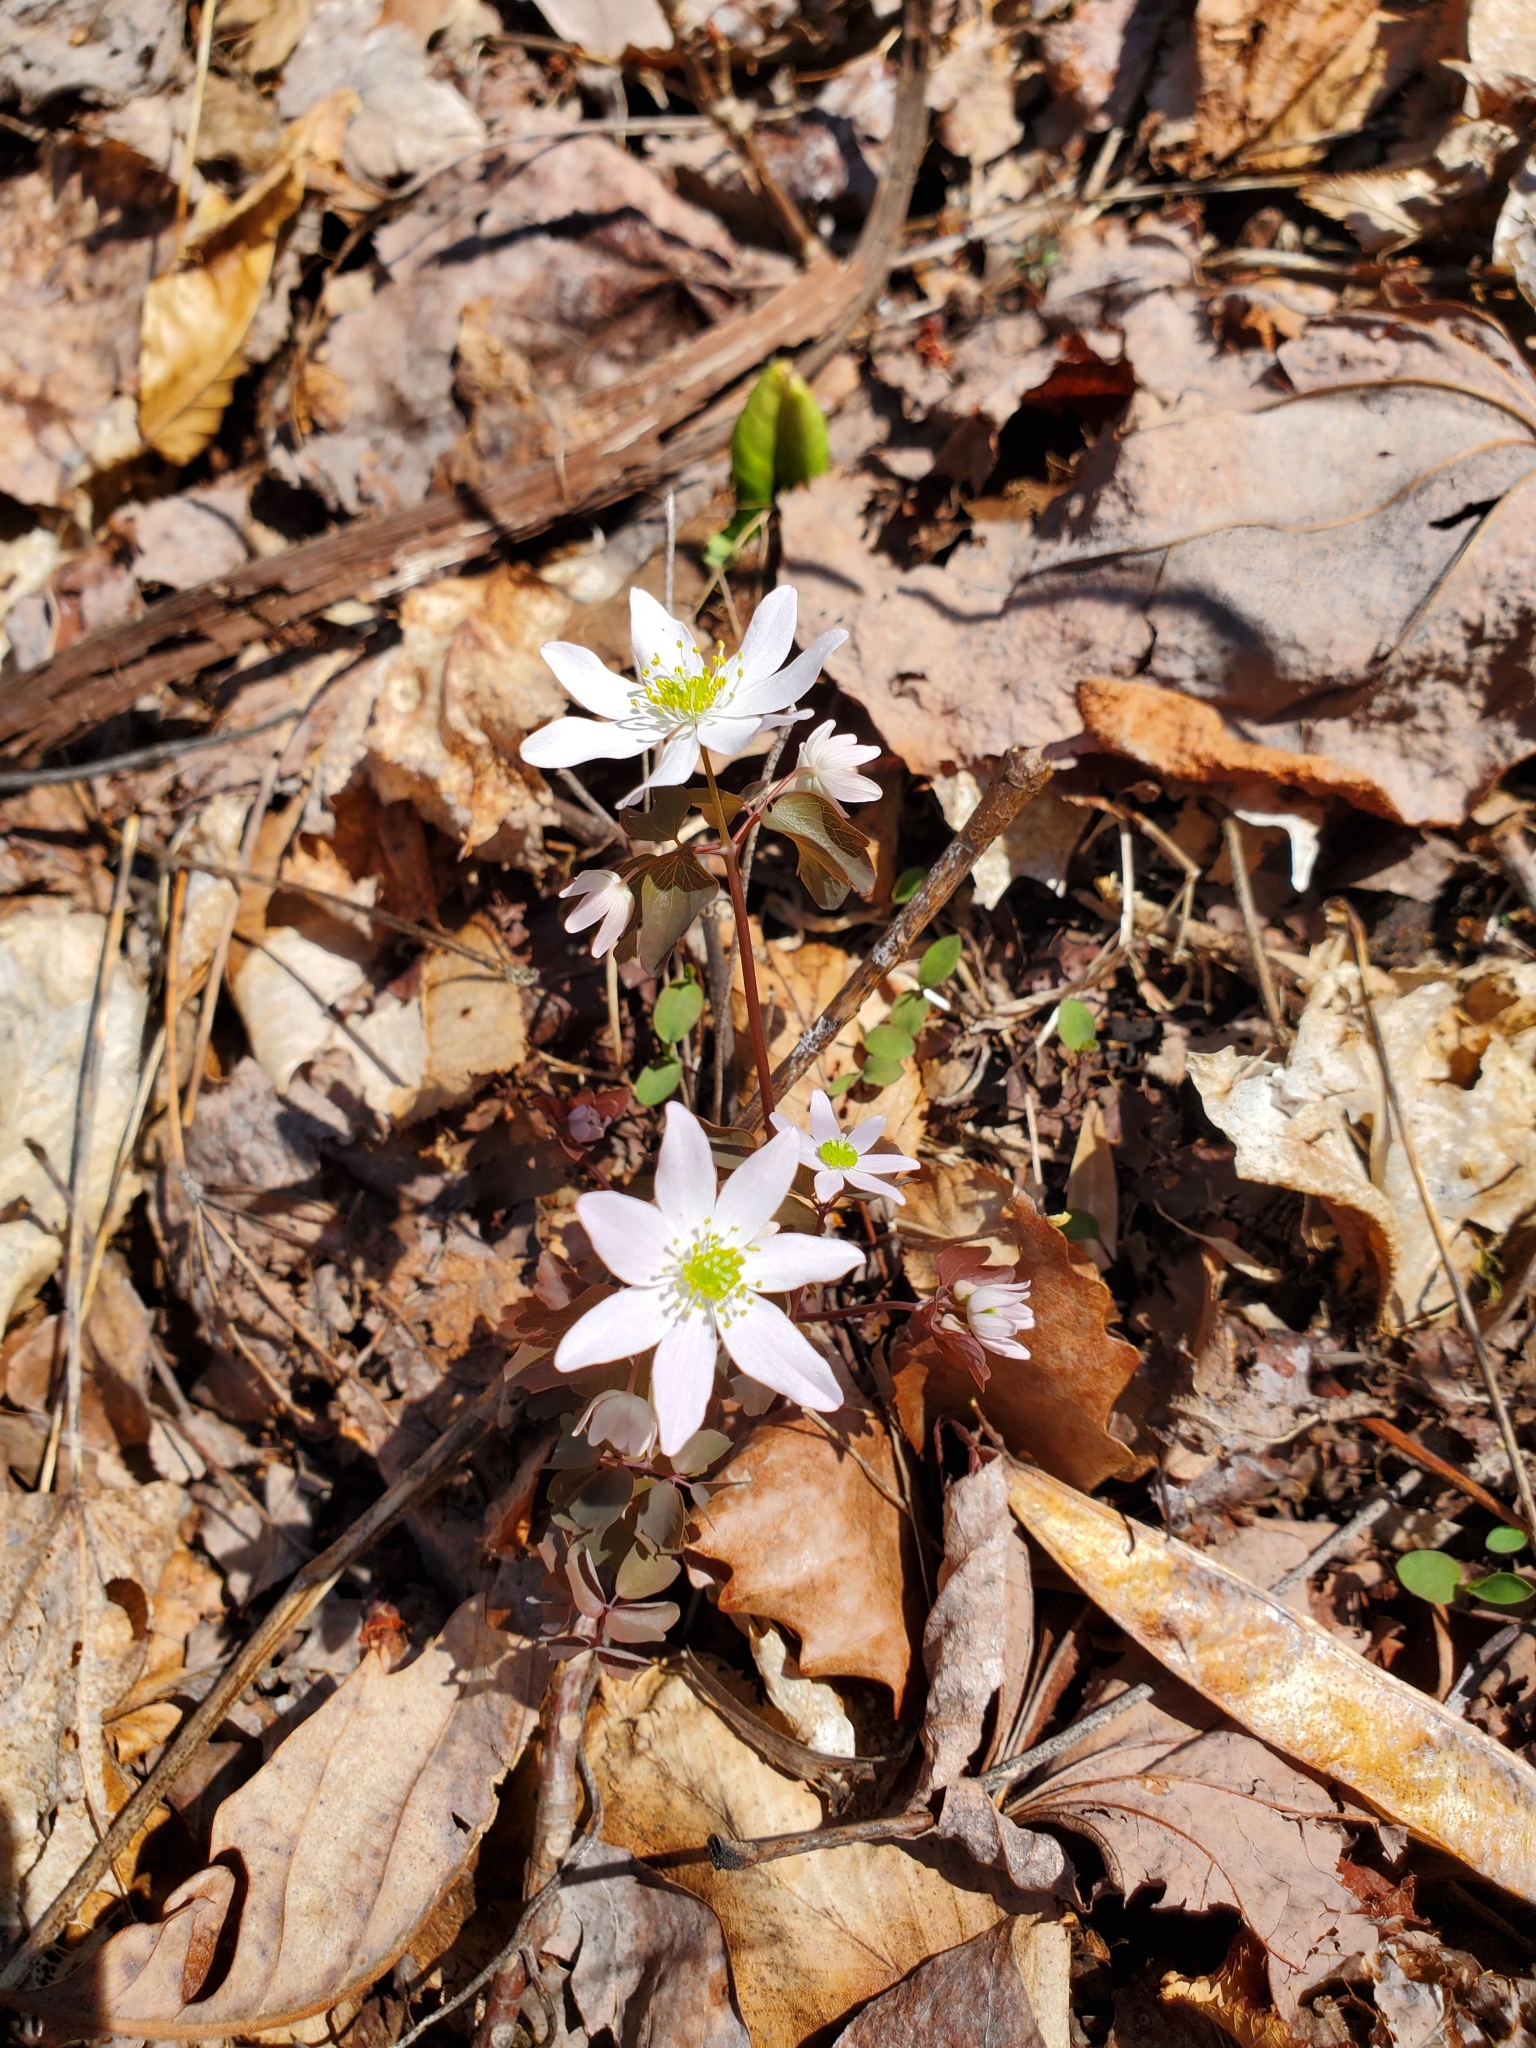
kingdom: Plantae
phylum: Tracheophyta
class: Magnoliopsida
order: Ranunculales
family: Ranunculaceae
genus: Thalictrum
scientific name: Thalictrum thalictroides
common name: Rue-anemone
